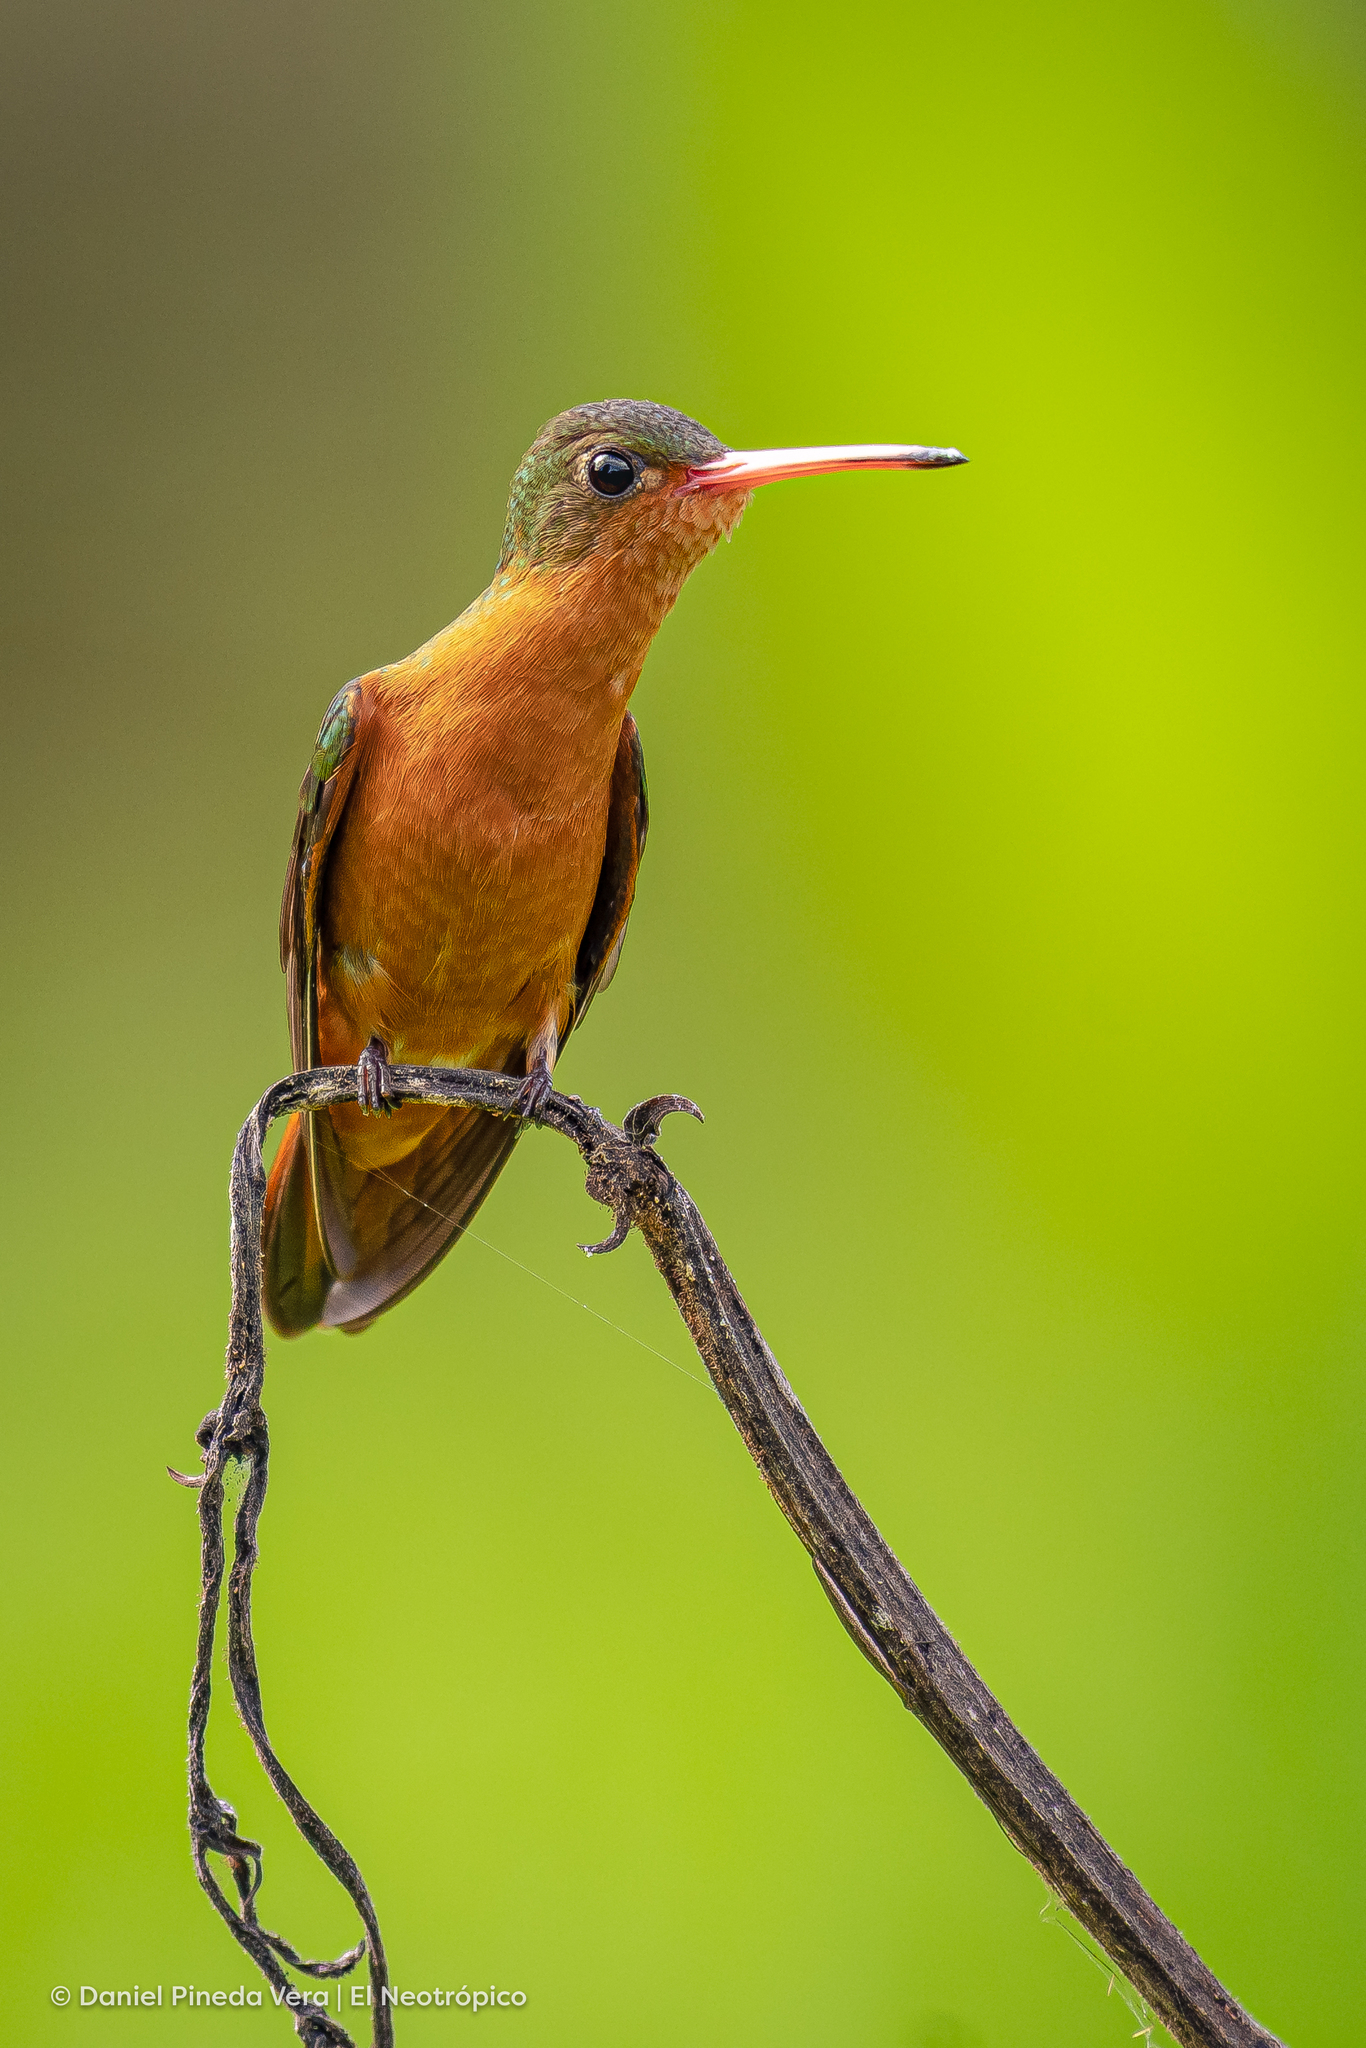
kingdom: Animalia
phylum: Chordata
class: Aves
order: Apodiformes
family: Trochilidae
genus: Amazilia
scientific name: Amazilia rutila
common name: Cinnamon hummingbird
